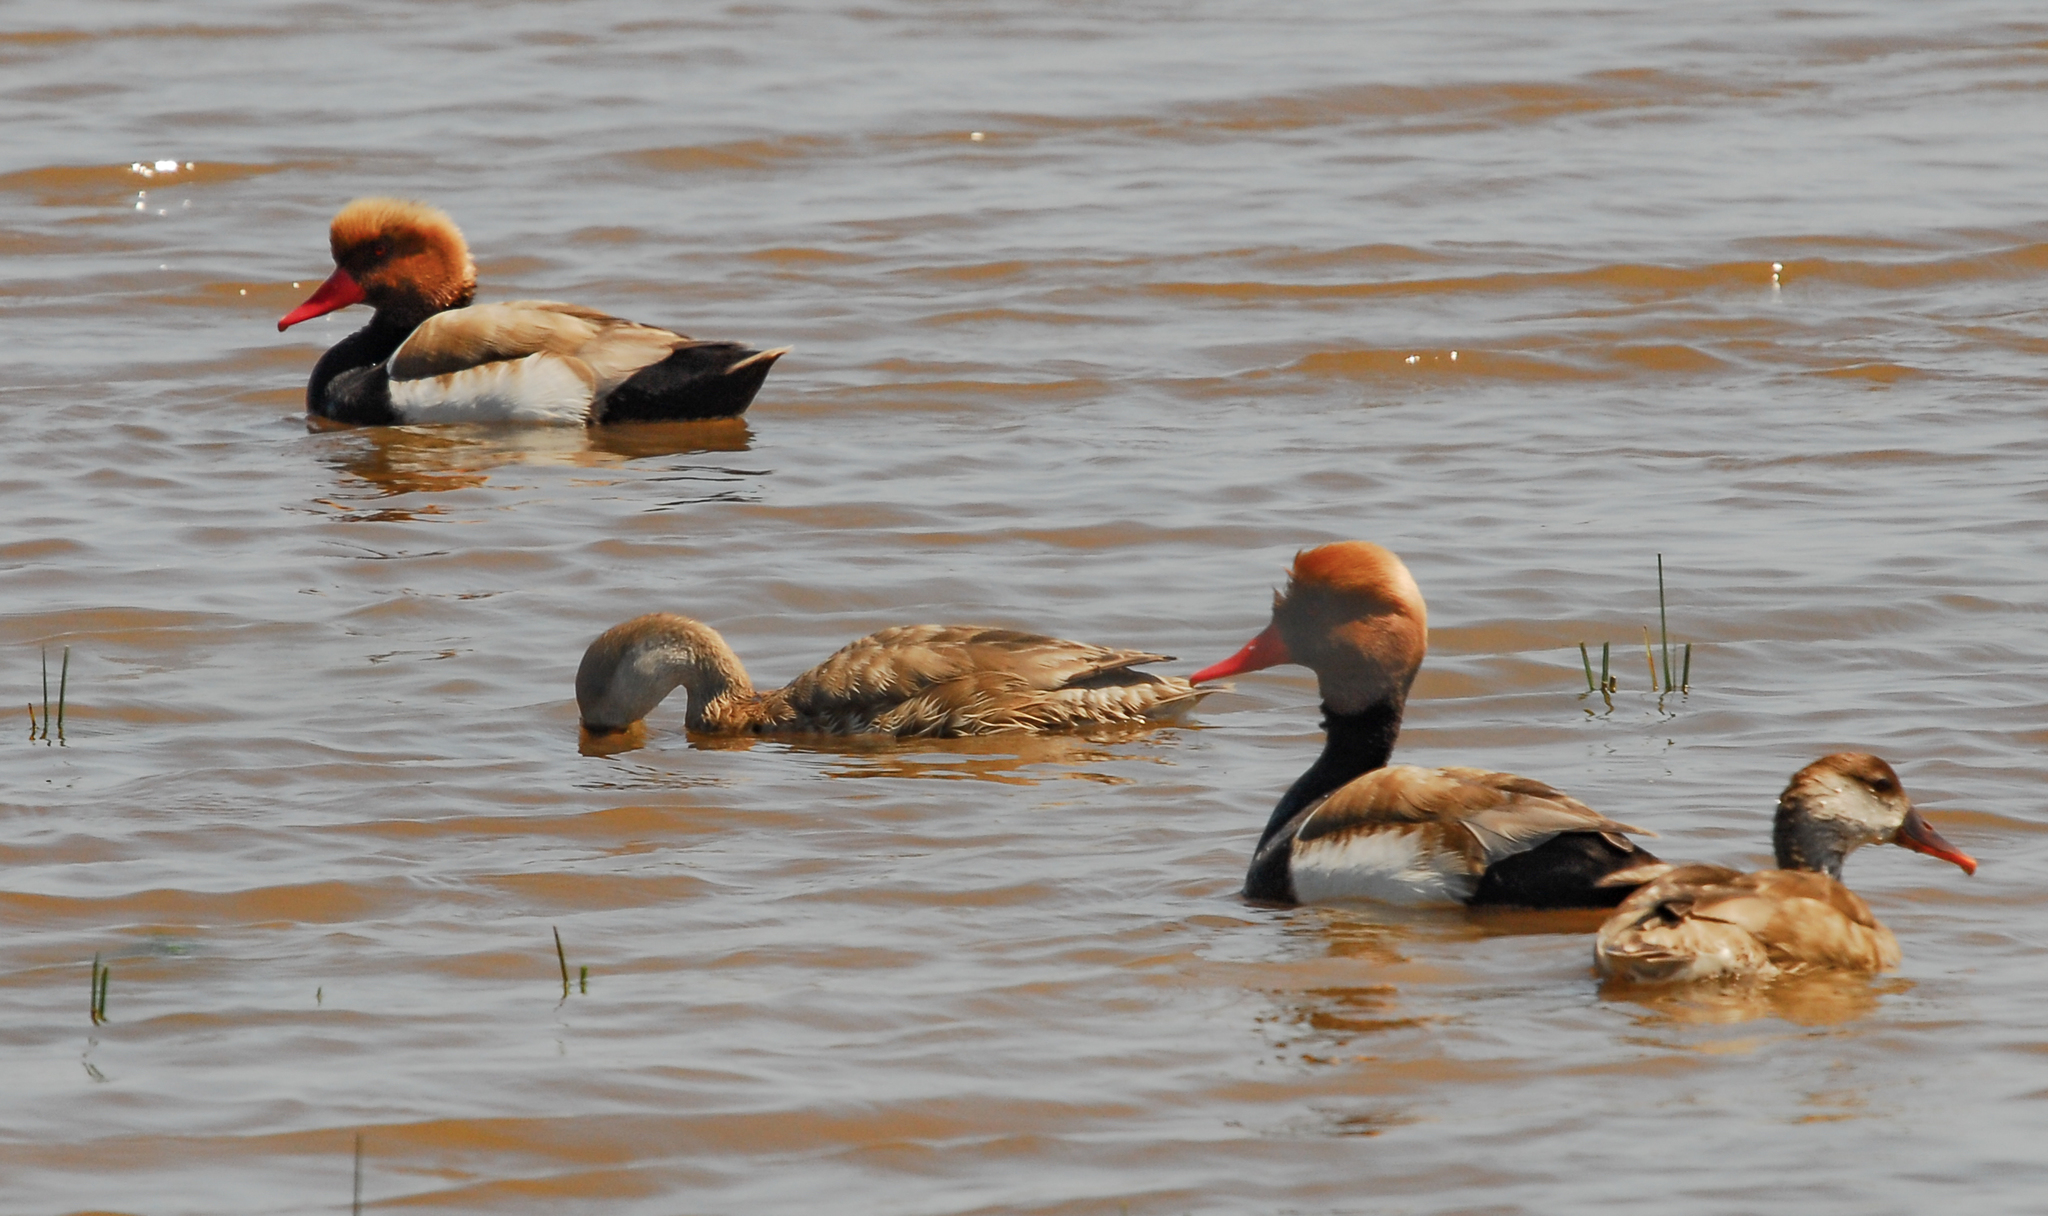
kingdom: Animalia
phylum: Chordata
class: Aves
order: Anseriformes
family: Anatidae
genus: Netta
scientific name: Netta rufina
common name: Red-crested pochard
